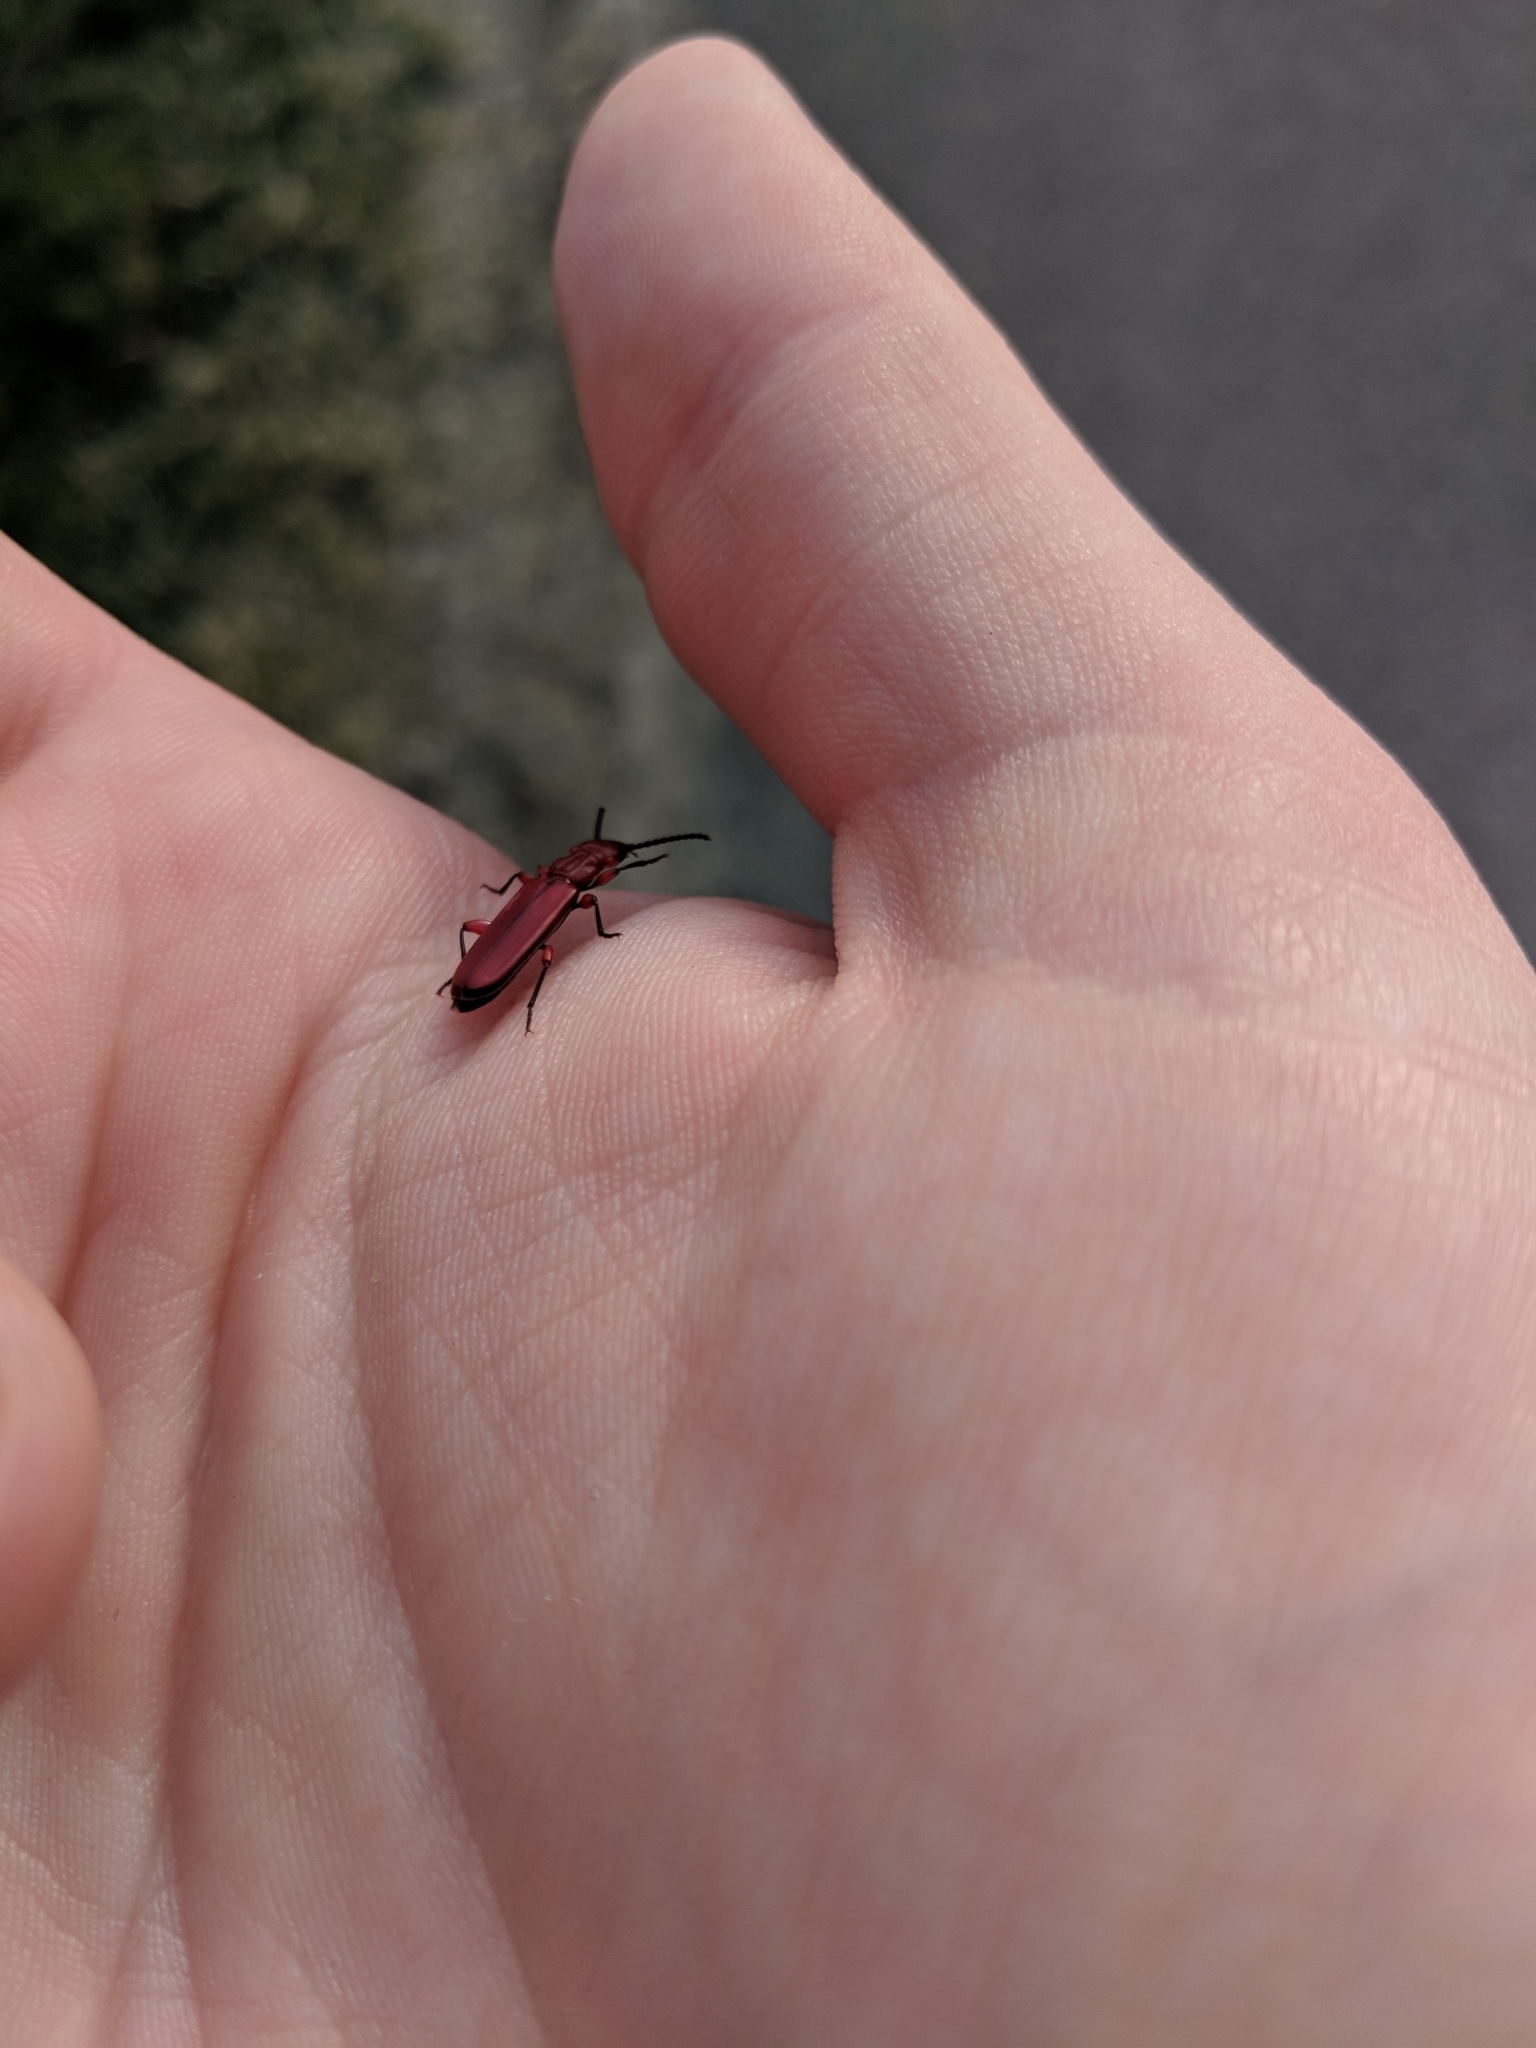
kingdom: Animalia
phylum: Arthropoda
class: Insecta
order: Coleoptera
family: Cucujidae
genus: Cucujus
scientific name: Cucujus clavipes
